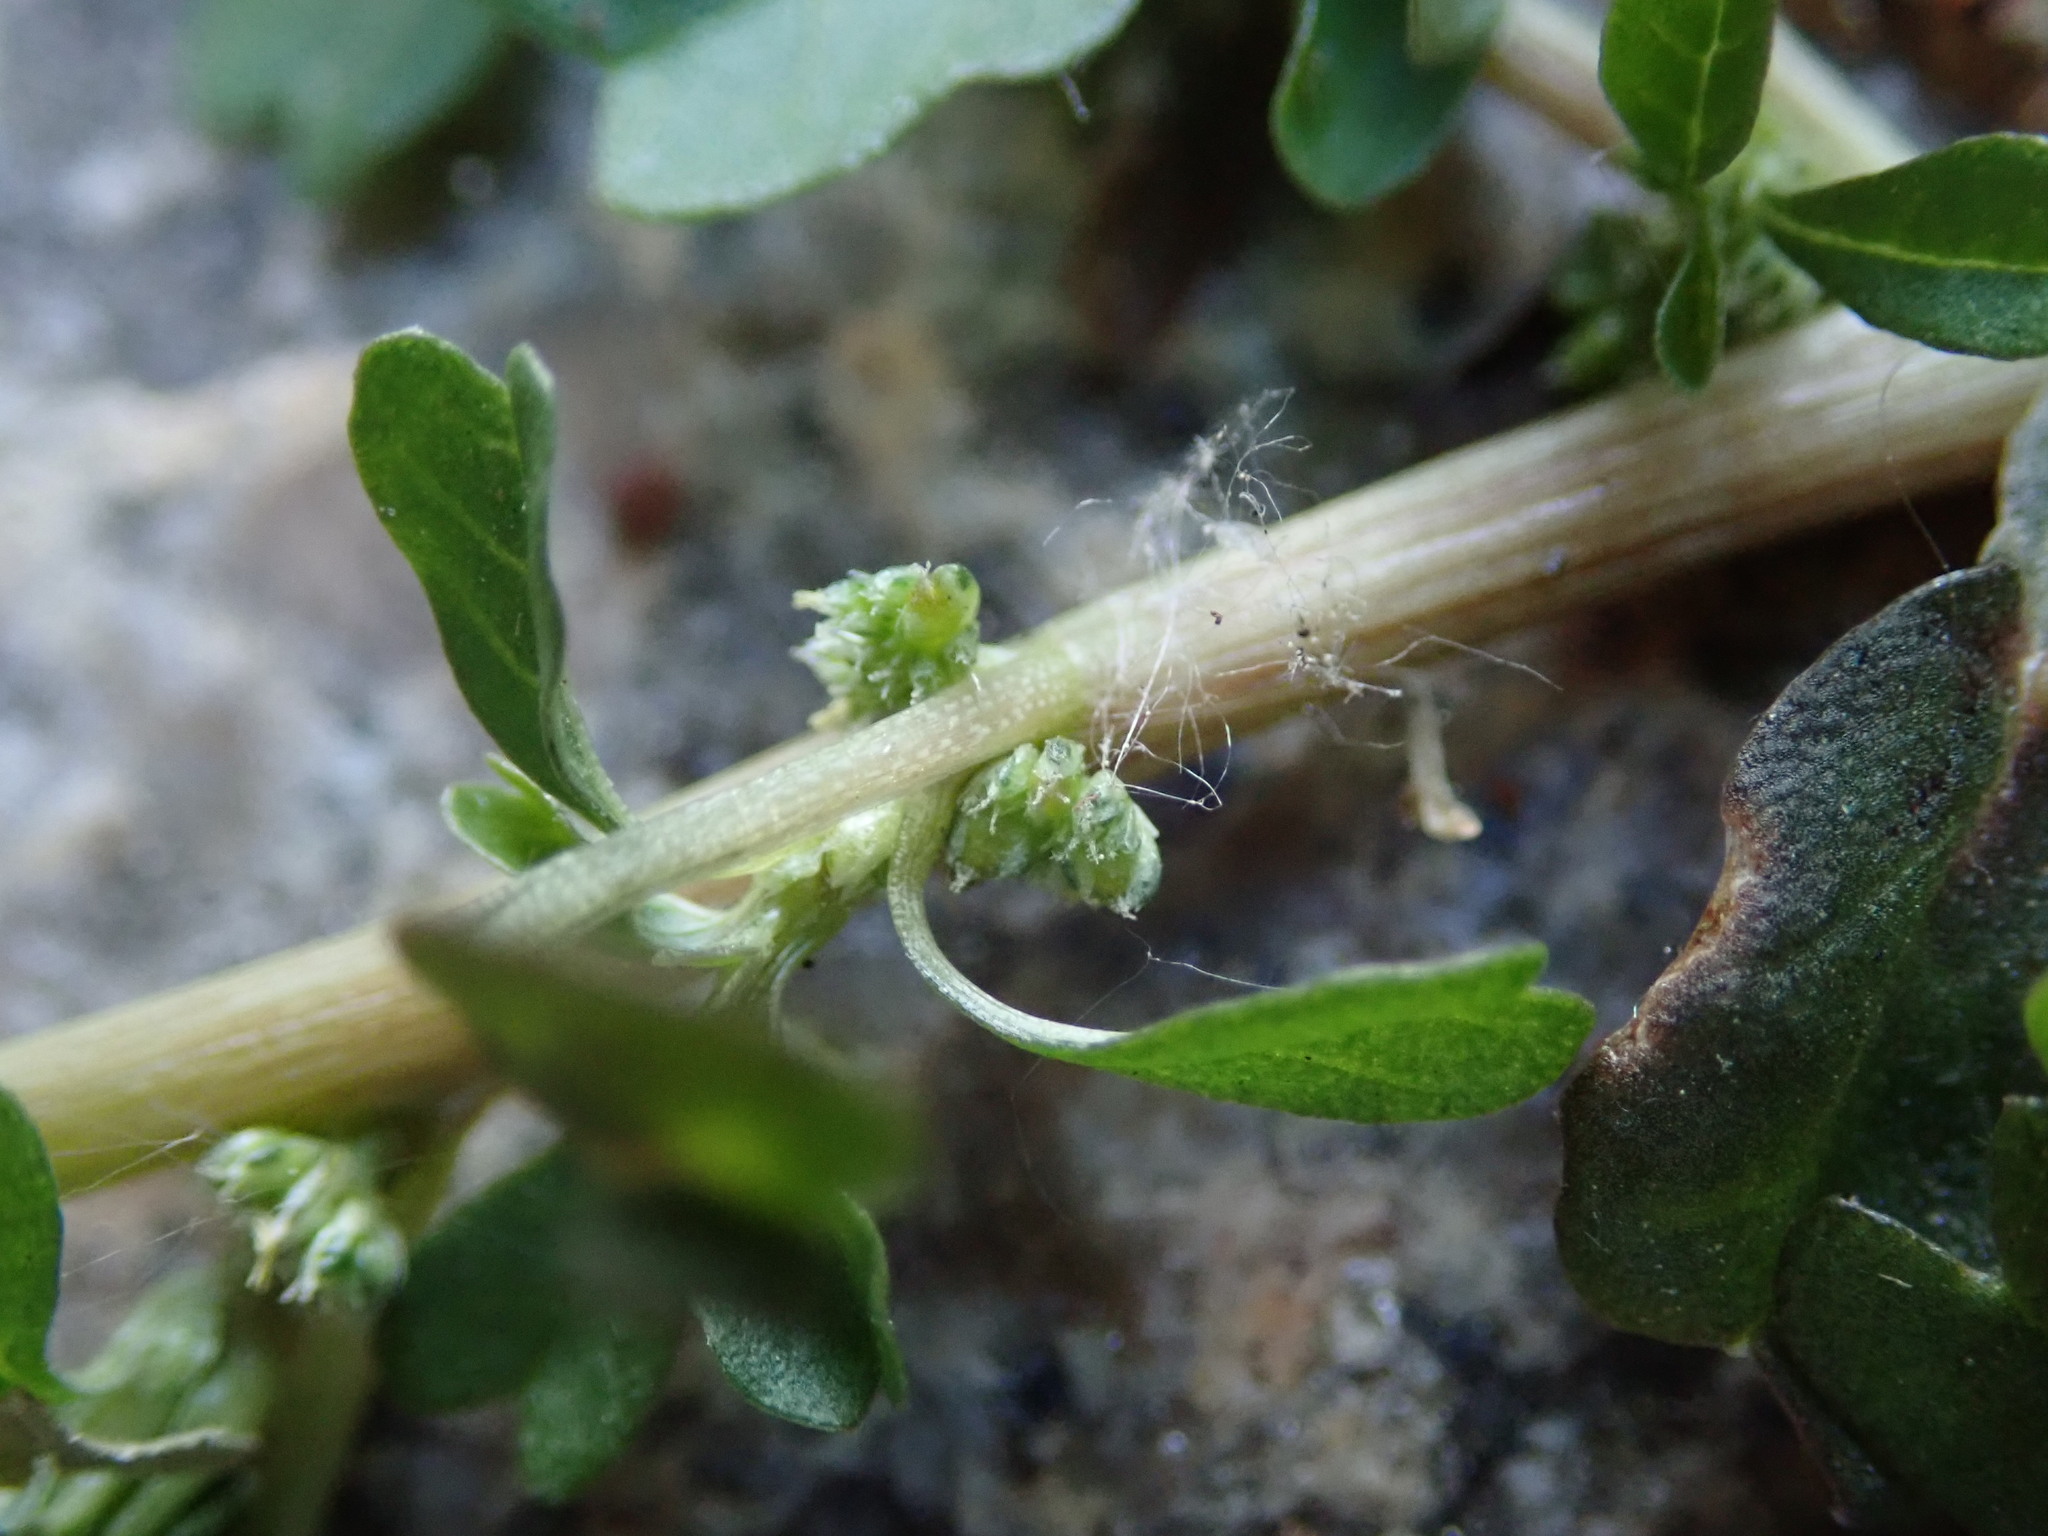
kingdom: Plantae
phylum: Tracheophyta
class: Magnoliopsida
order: Caryophyllales
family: Amaranthaceae
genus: Amaranthus
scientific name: Amaranthus blitum
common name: Purple amaranth
